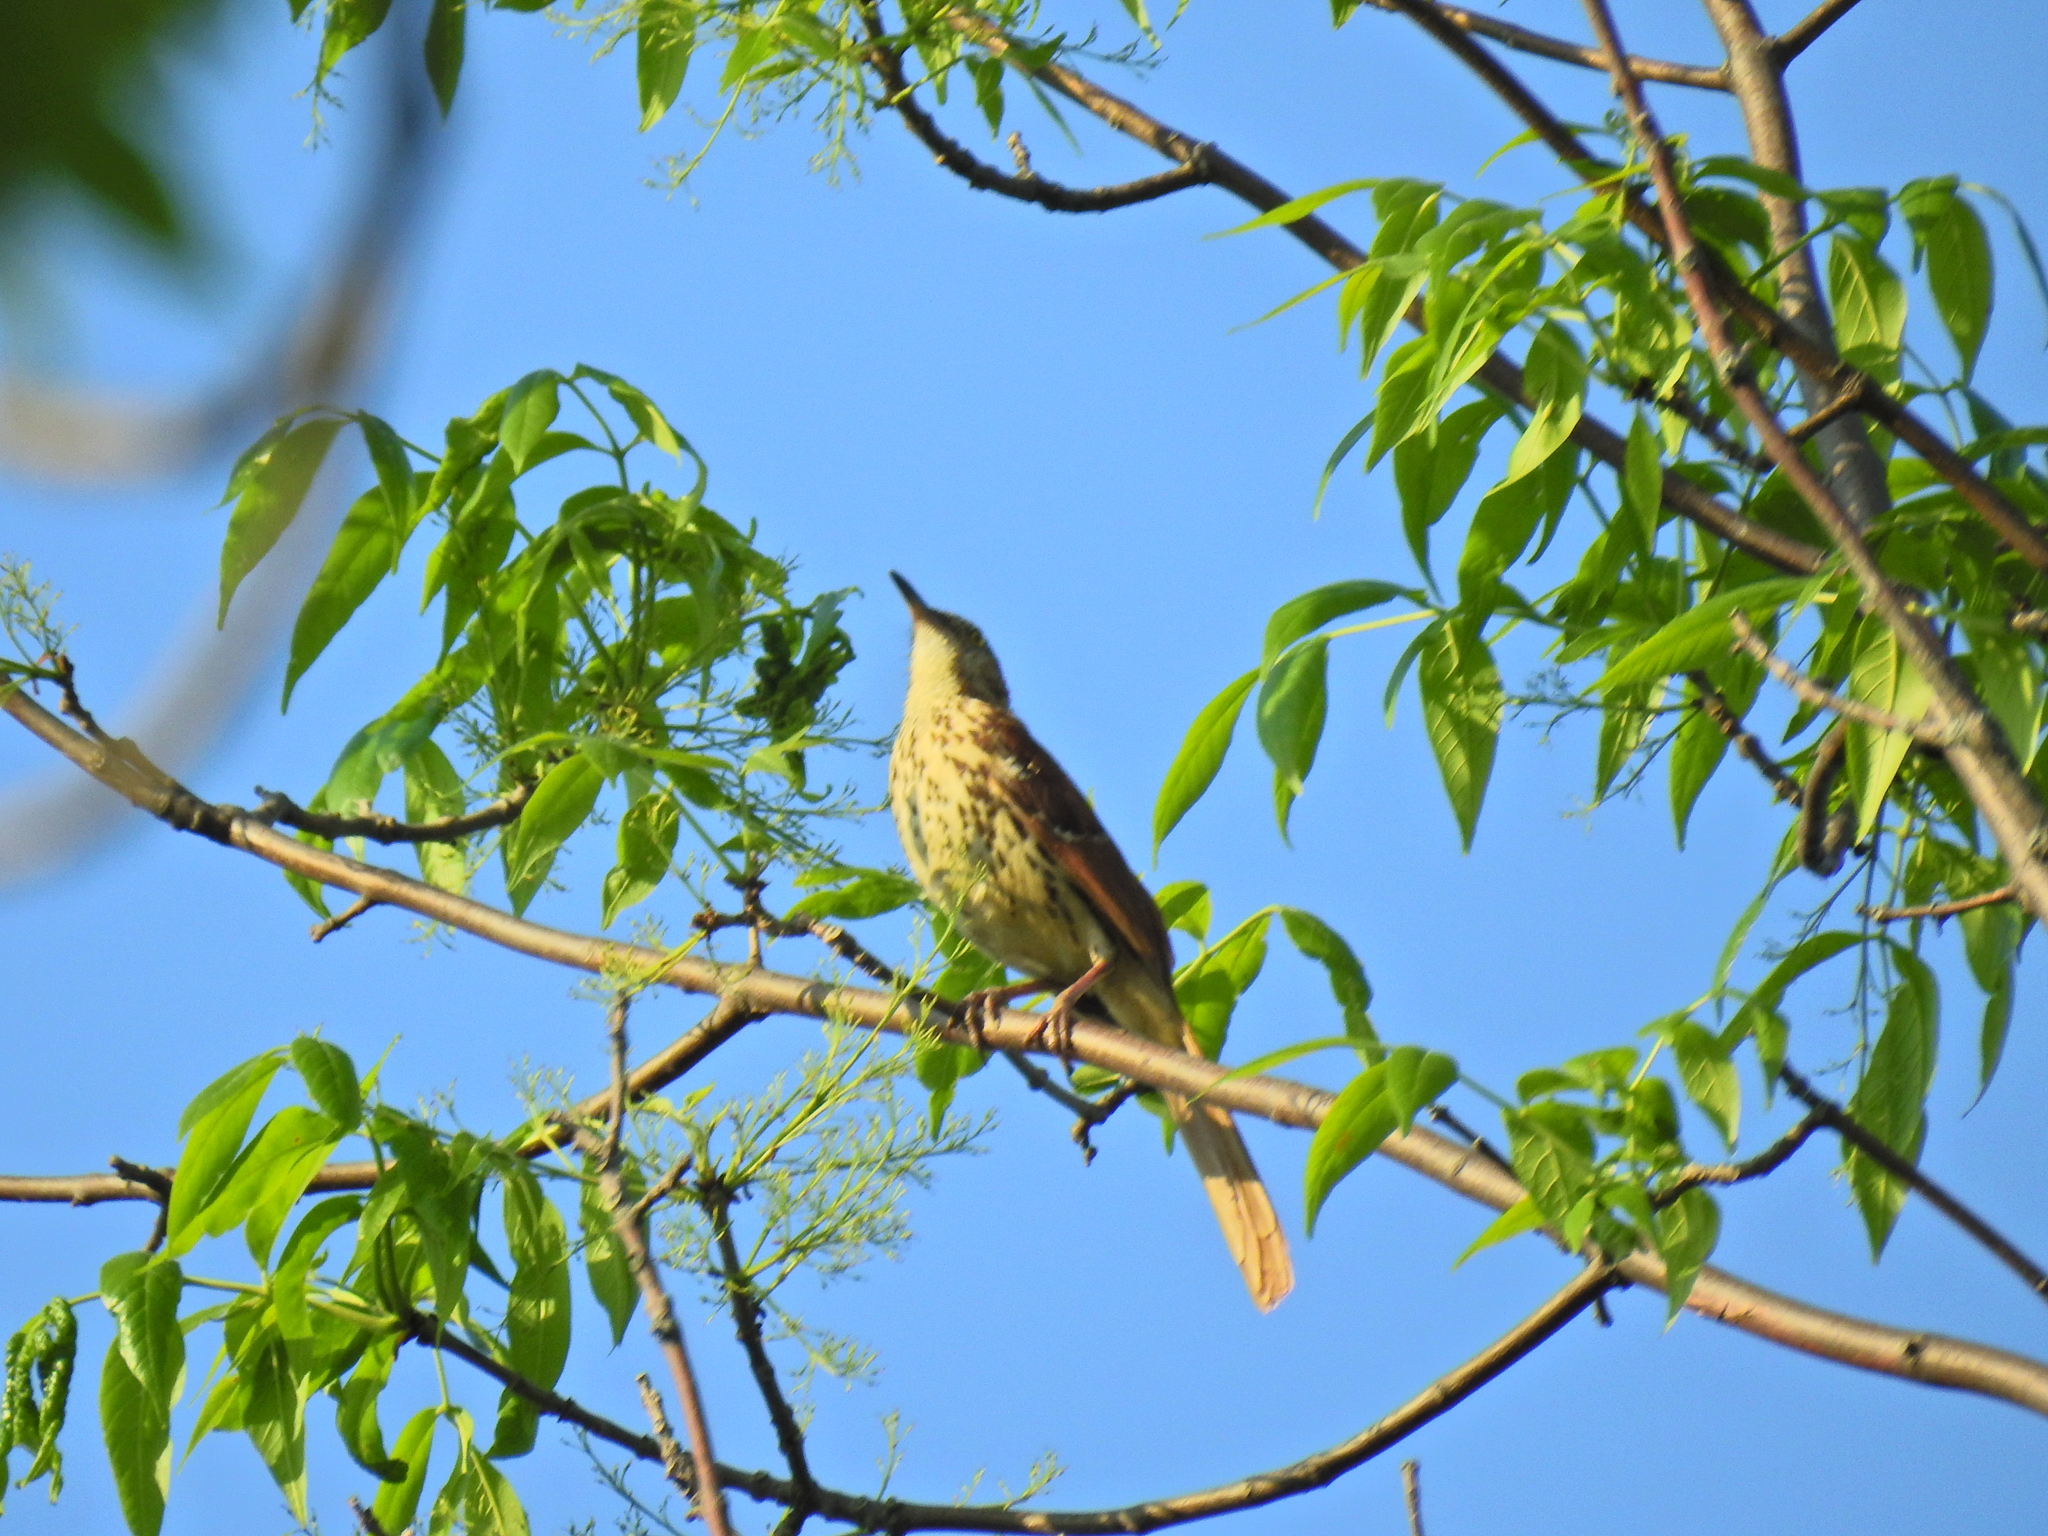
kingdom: Animalia
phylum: Chordata
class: Aves
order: Passeriformes
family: Mimidae
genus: Toxostoma
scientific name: Toxostoma rufum
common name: Brown thrasher
